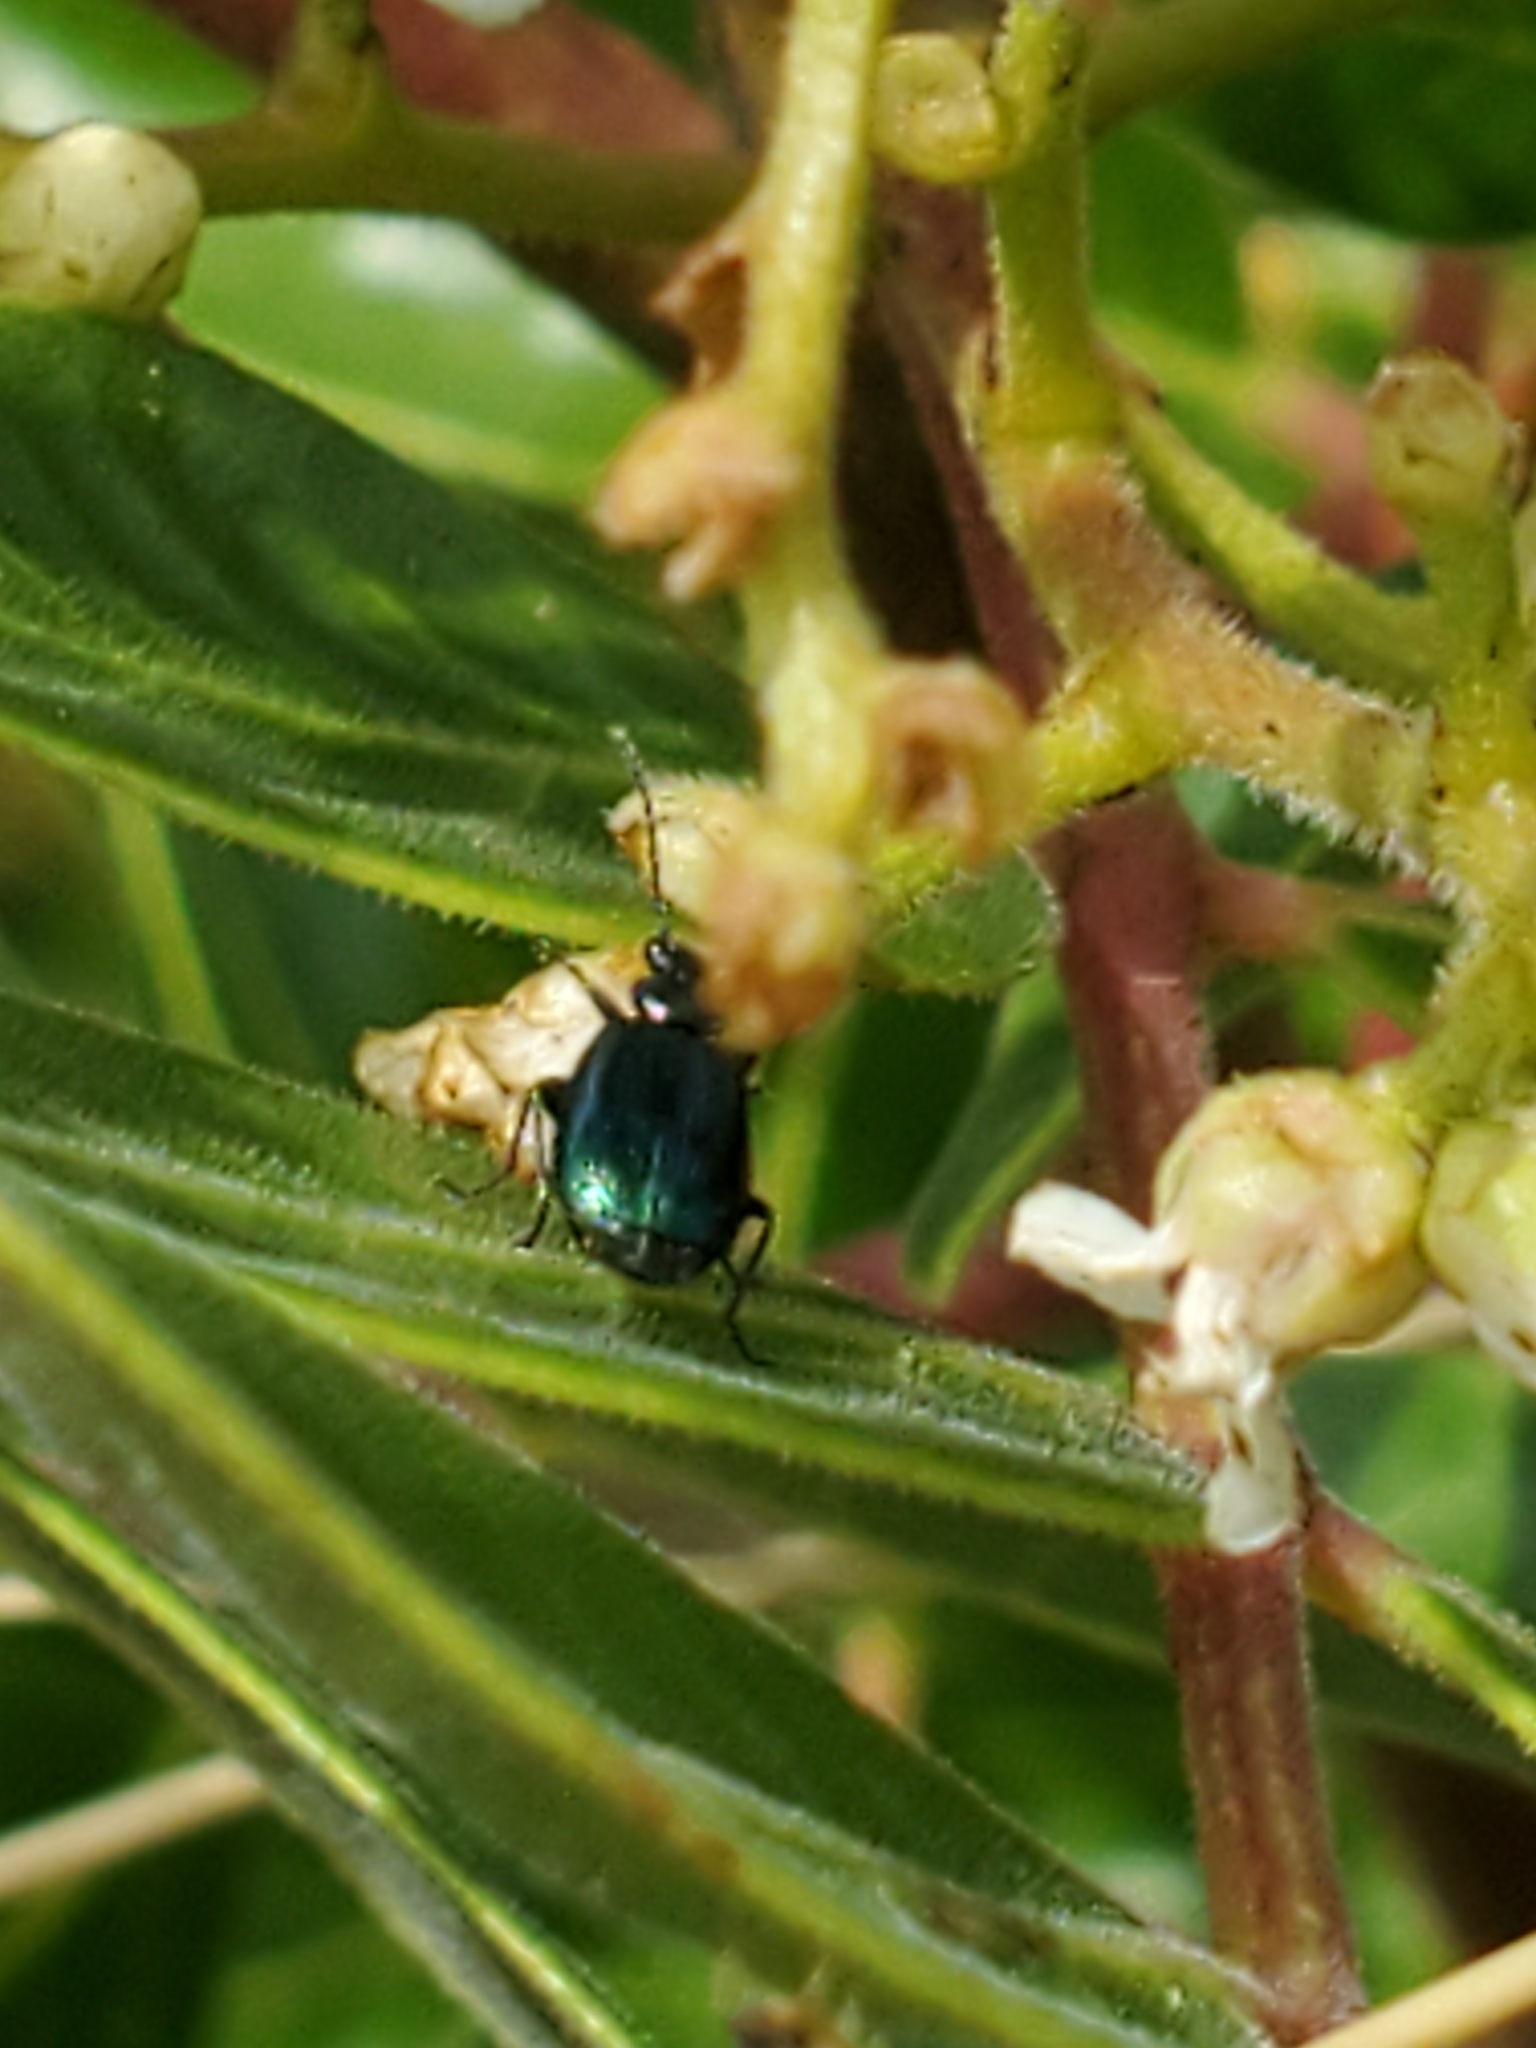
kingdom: Animalia
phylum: Arthropoda
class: Insecta
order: Coleoptera
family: Carabidae
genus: Lebia
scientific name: Lebia viridis
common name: Flower lebia beetle
